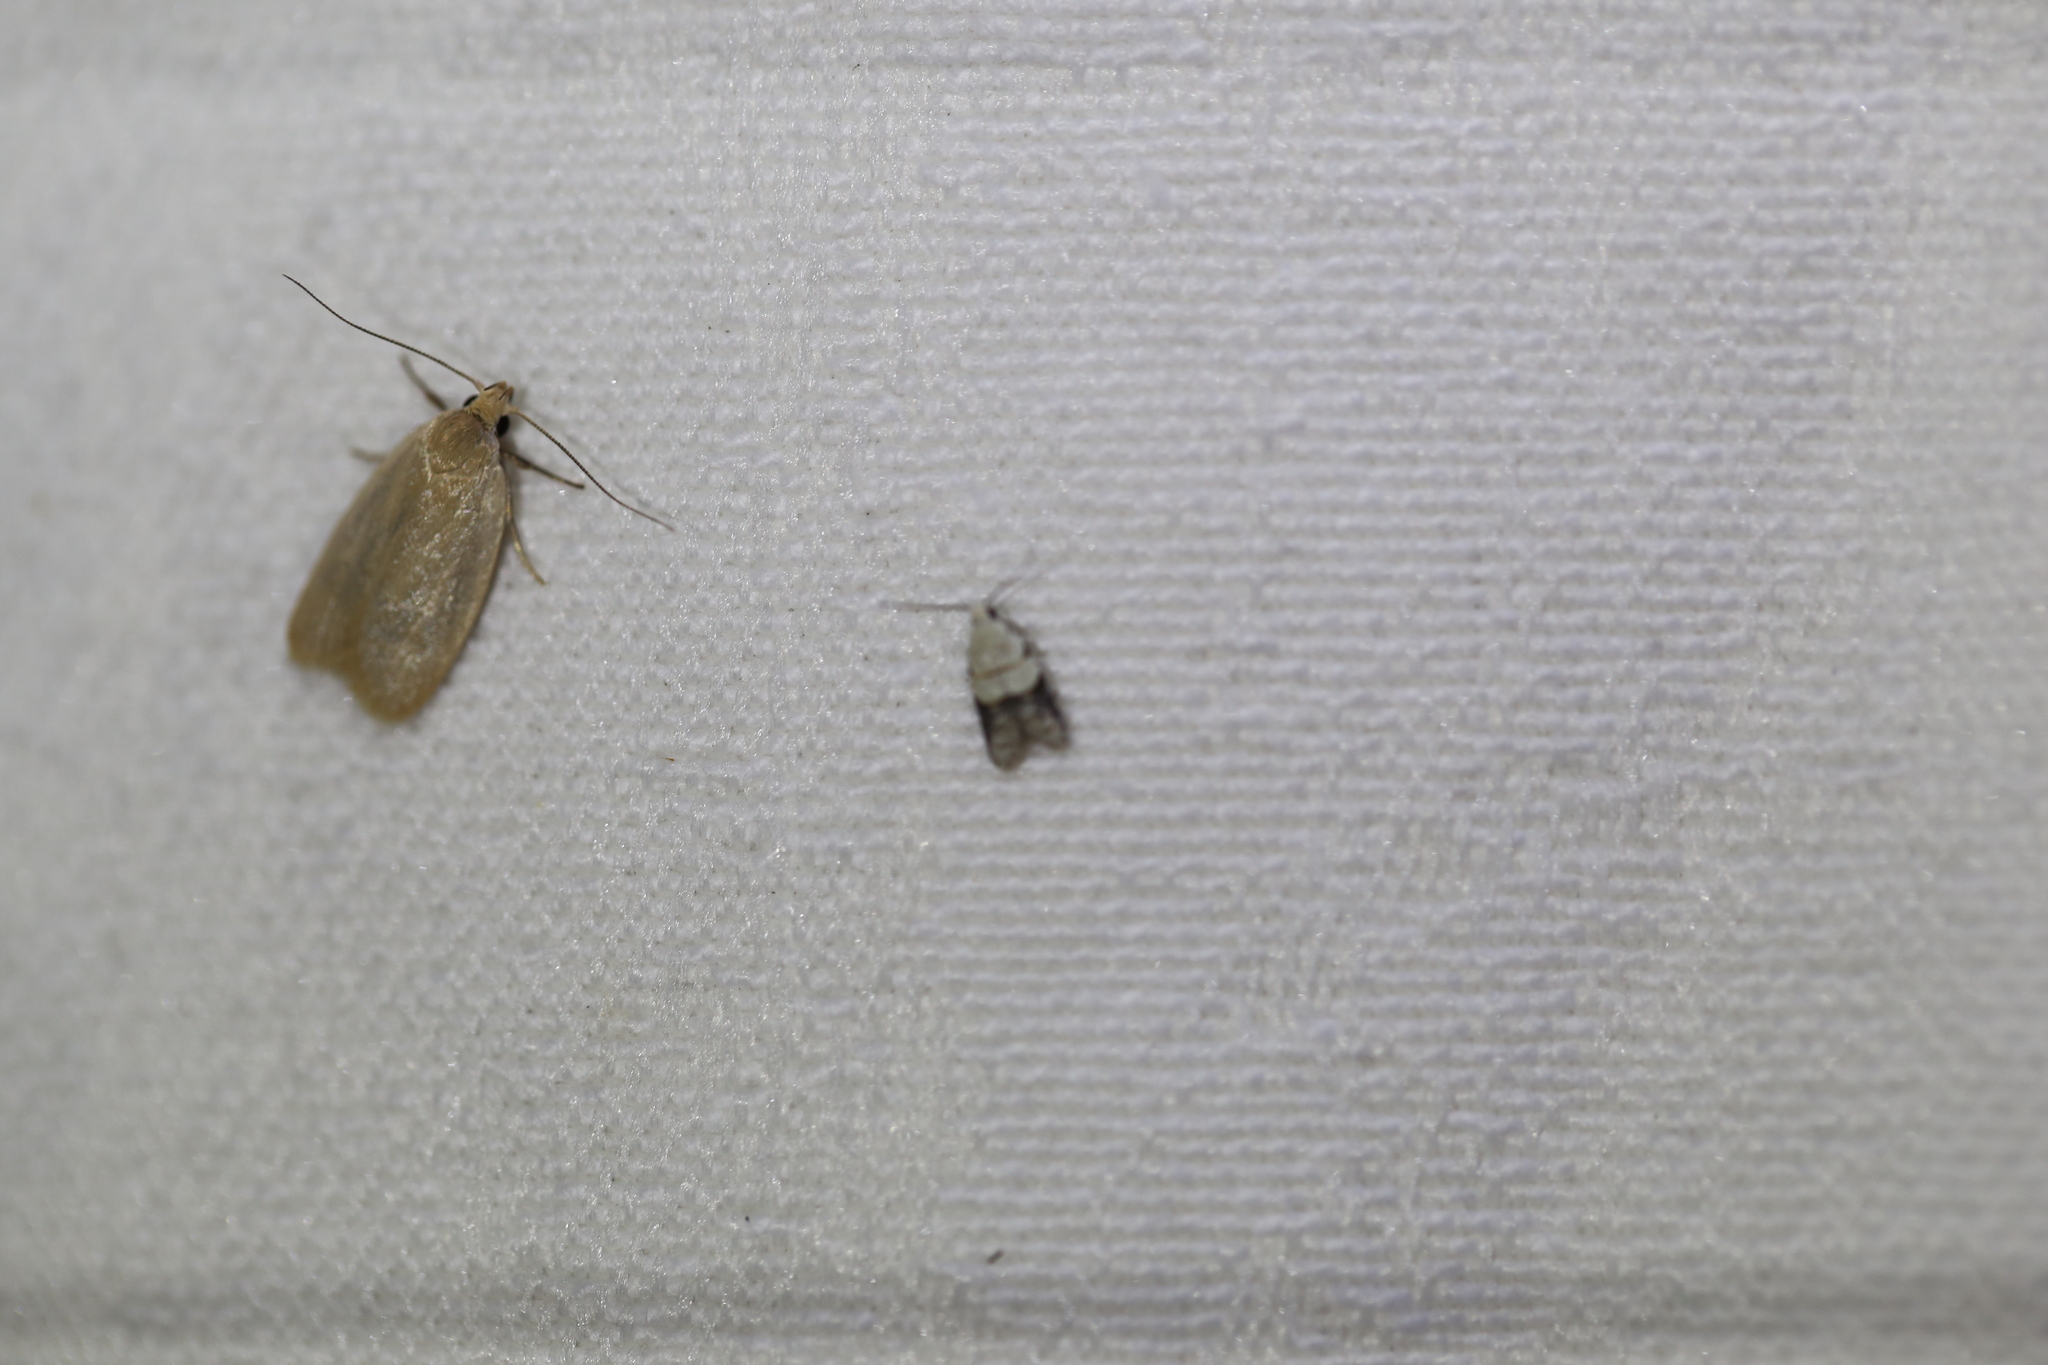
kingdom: Animalia
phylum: Arthropoda
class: Insecta
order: Lepidoptera
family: Tortricidae
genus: Tracholena
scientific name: Tracholena sulfurosa
